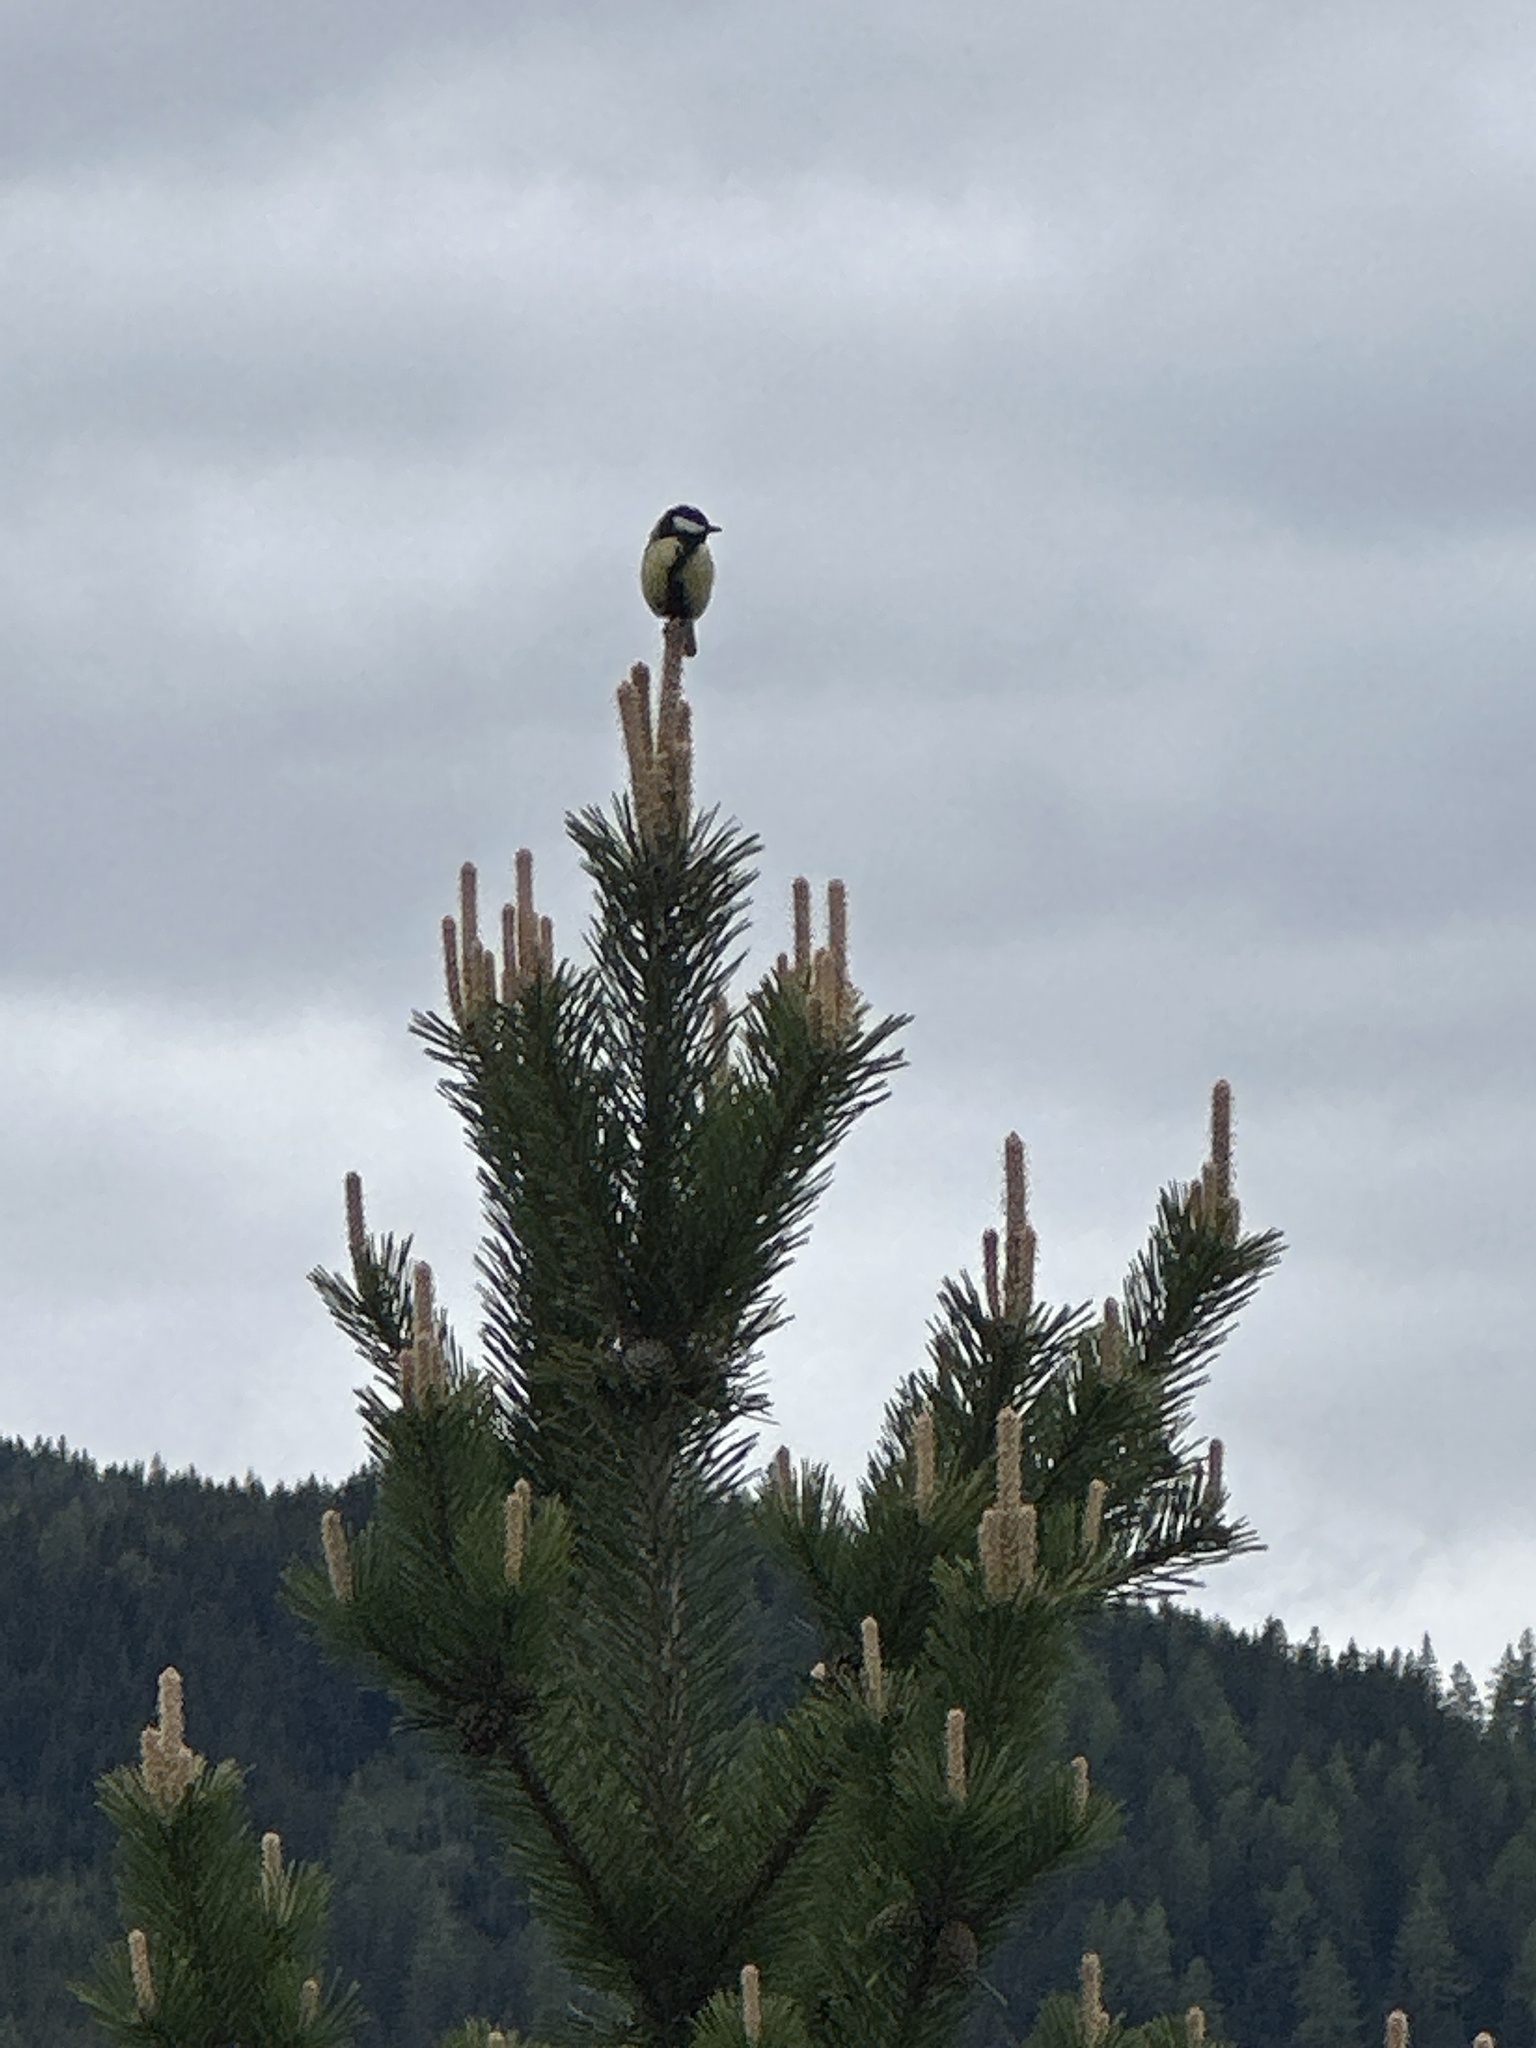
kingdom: Animalia
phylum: Chordata
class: Aves
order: Passeriformes
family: Paridae
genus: Parus
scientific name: Parus major
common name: Great tit
